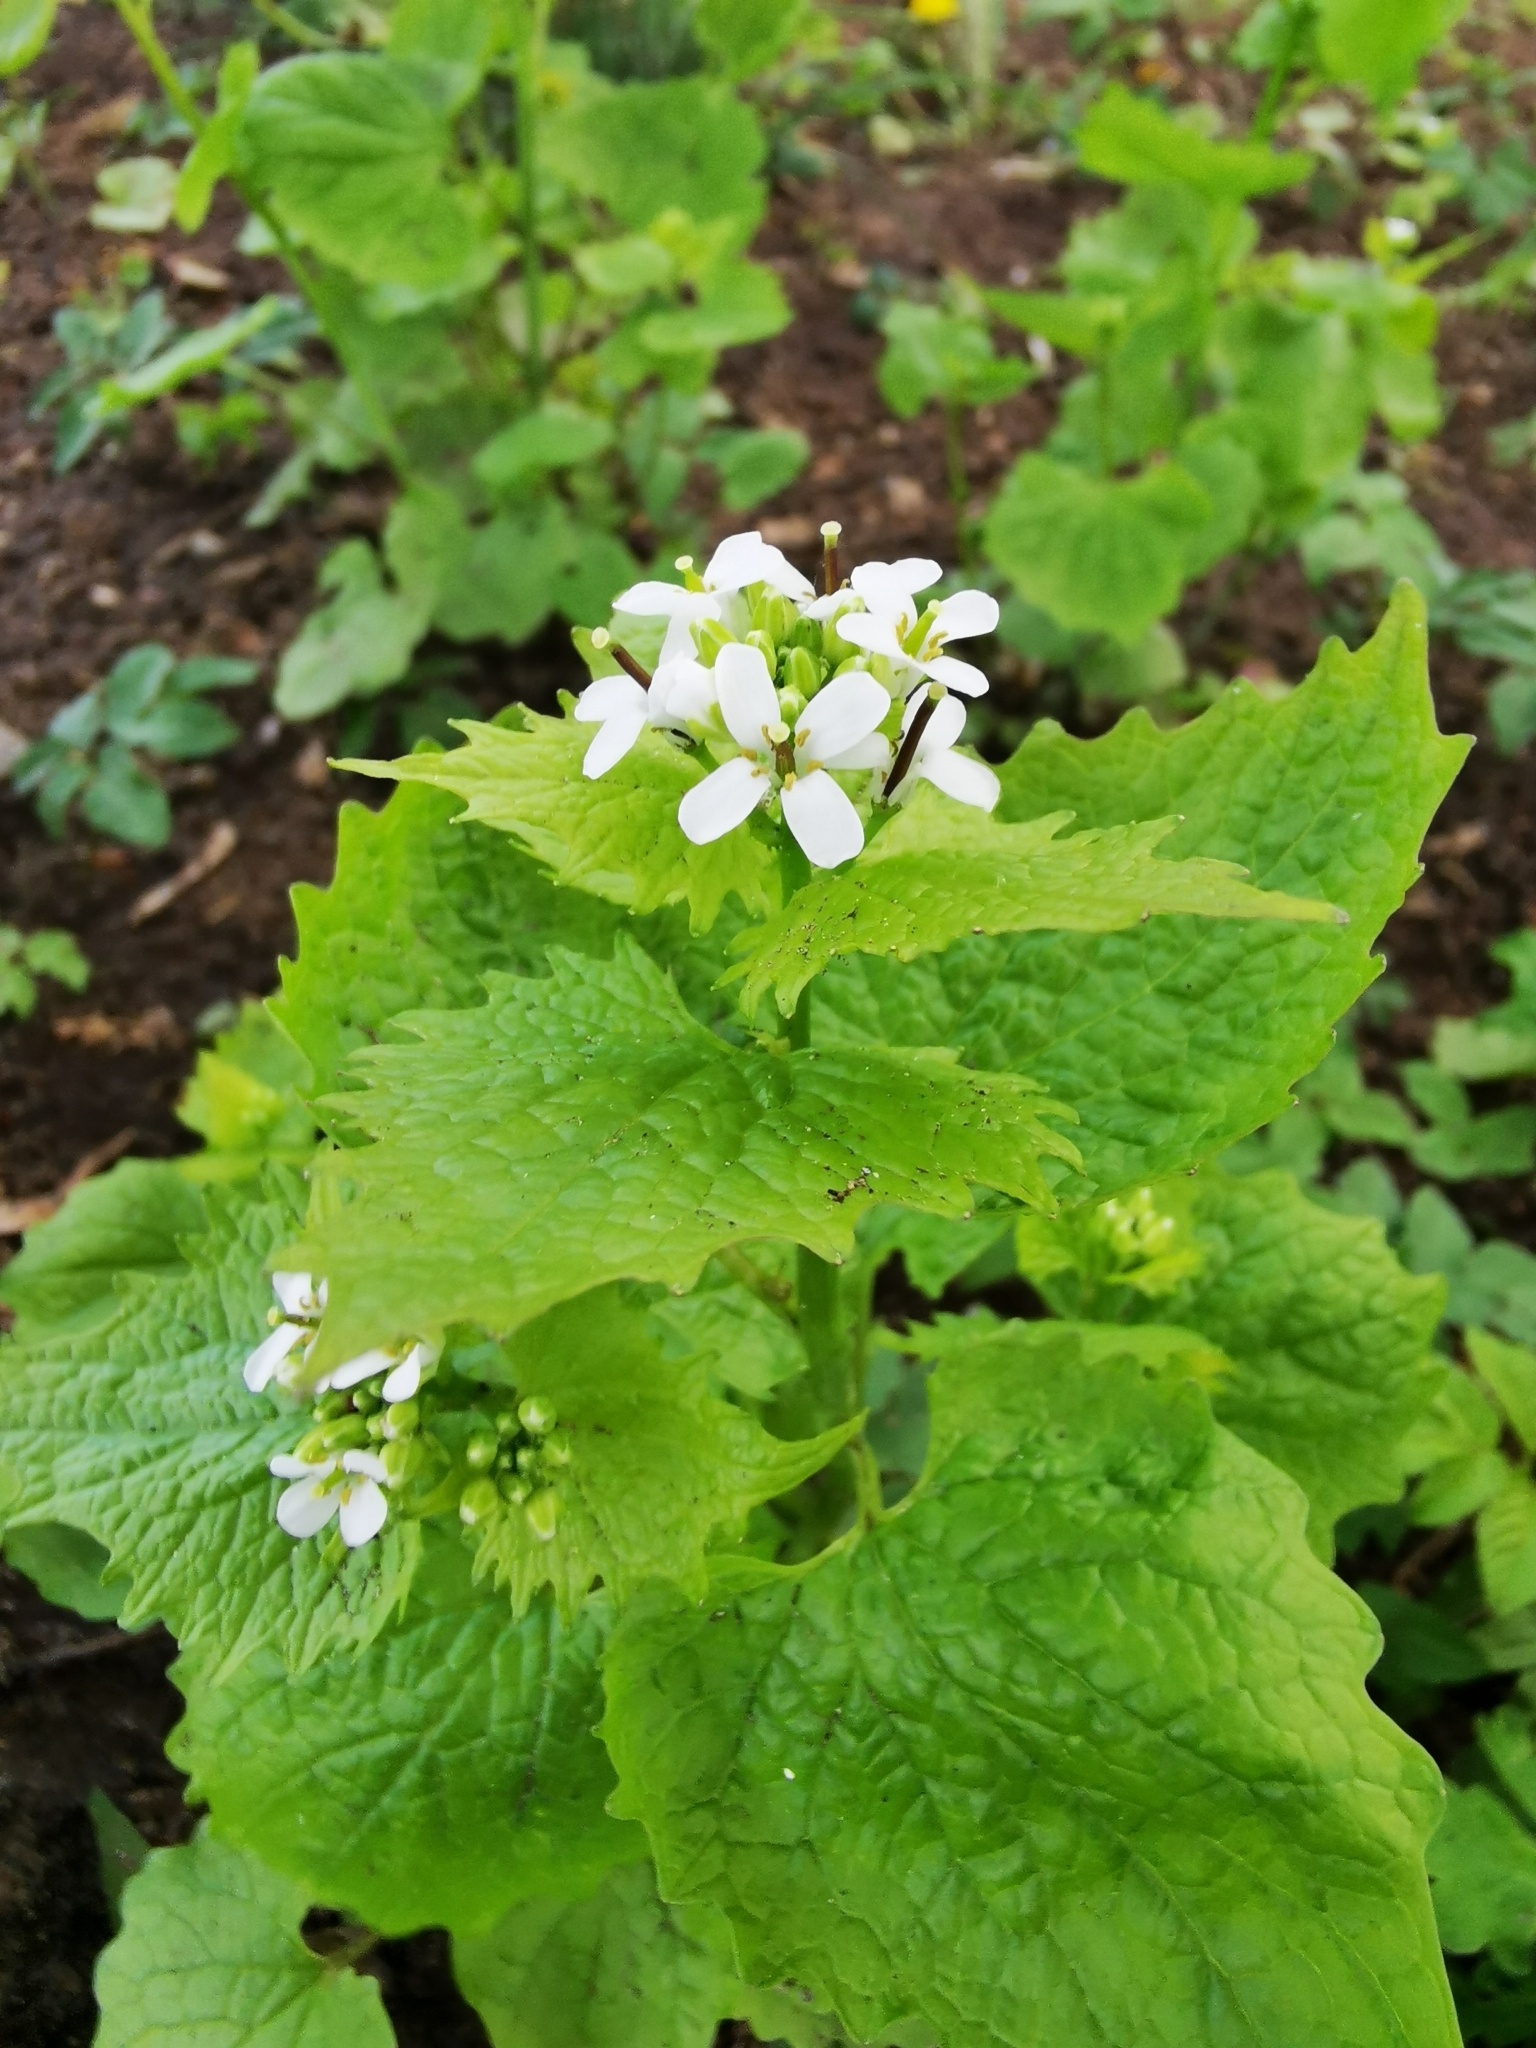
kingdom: Plantae
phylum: Tracheophyta
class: Magnoliopsida
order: Brassicales
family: Brassicaceae
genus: Alliaria
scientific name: Alliaria petiolata
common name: Garlic mustard
